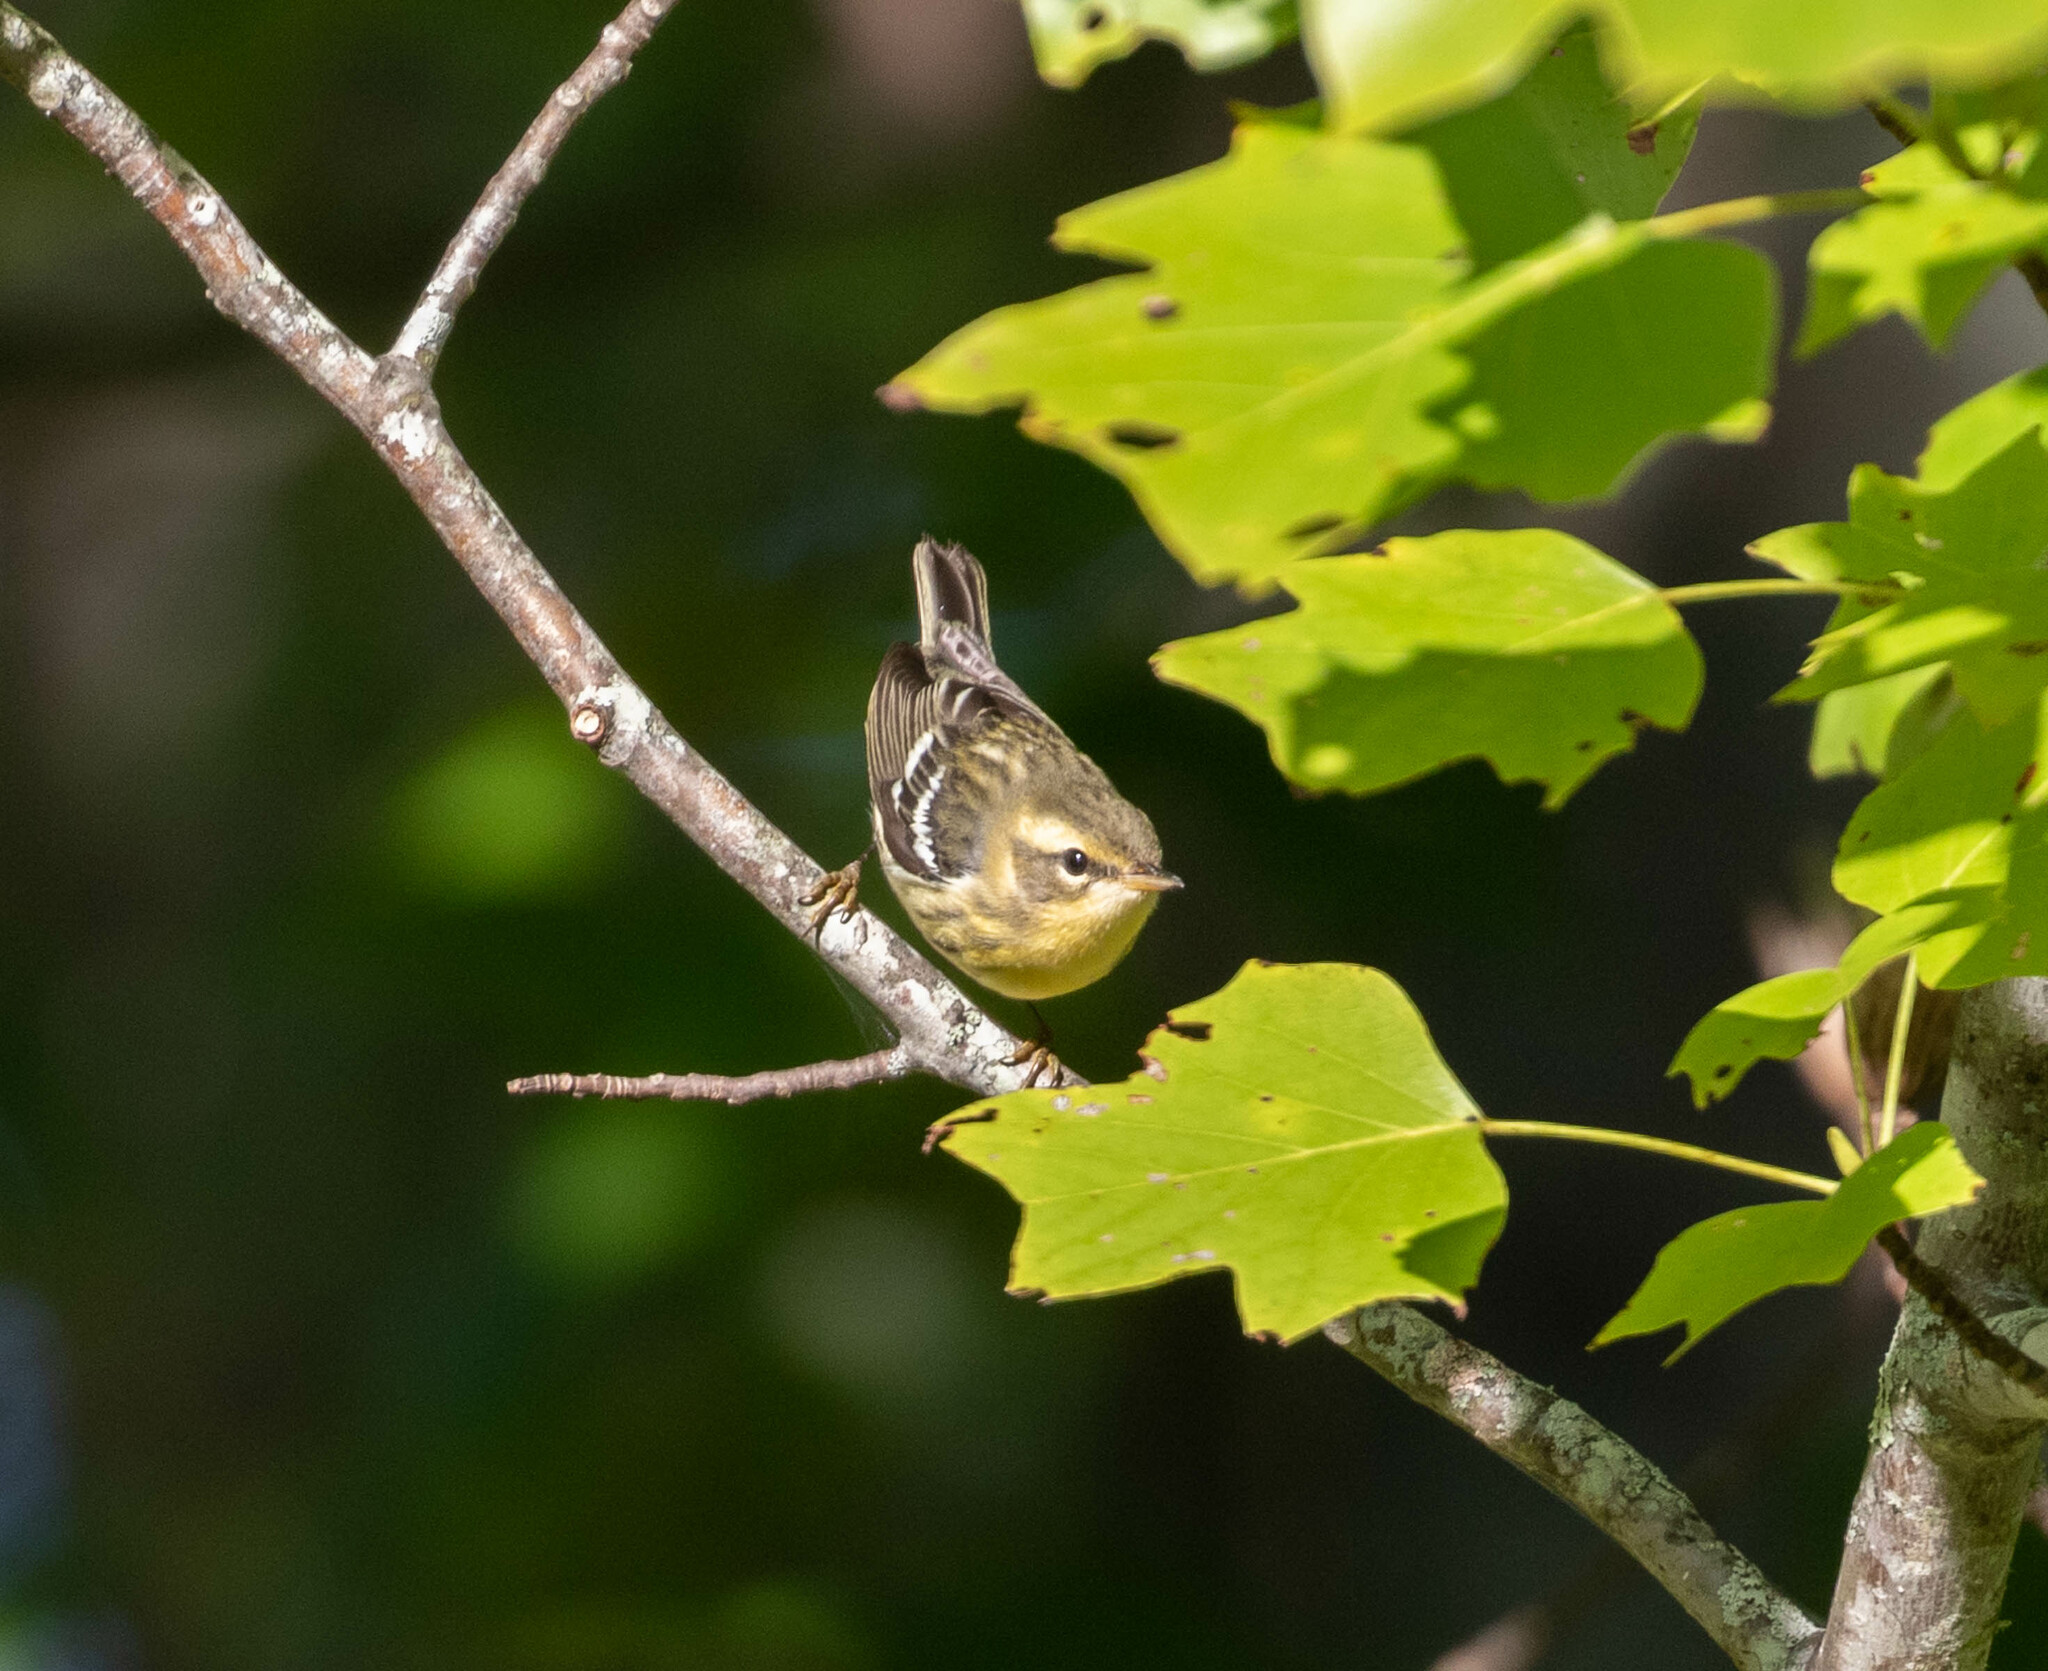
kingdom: Animalia
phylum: Chordata
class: Aves
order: Passeriformes
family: Parulidae
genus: Setophaga
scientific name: Setophaga fusca
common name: Blackburnian warbler
